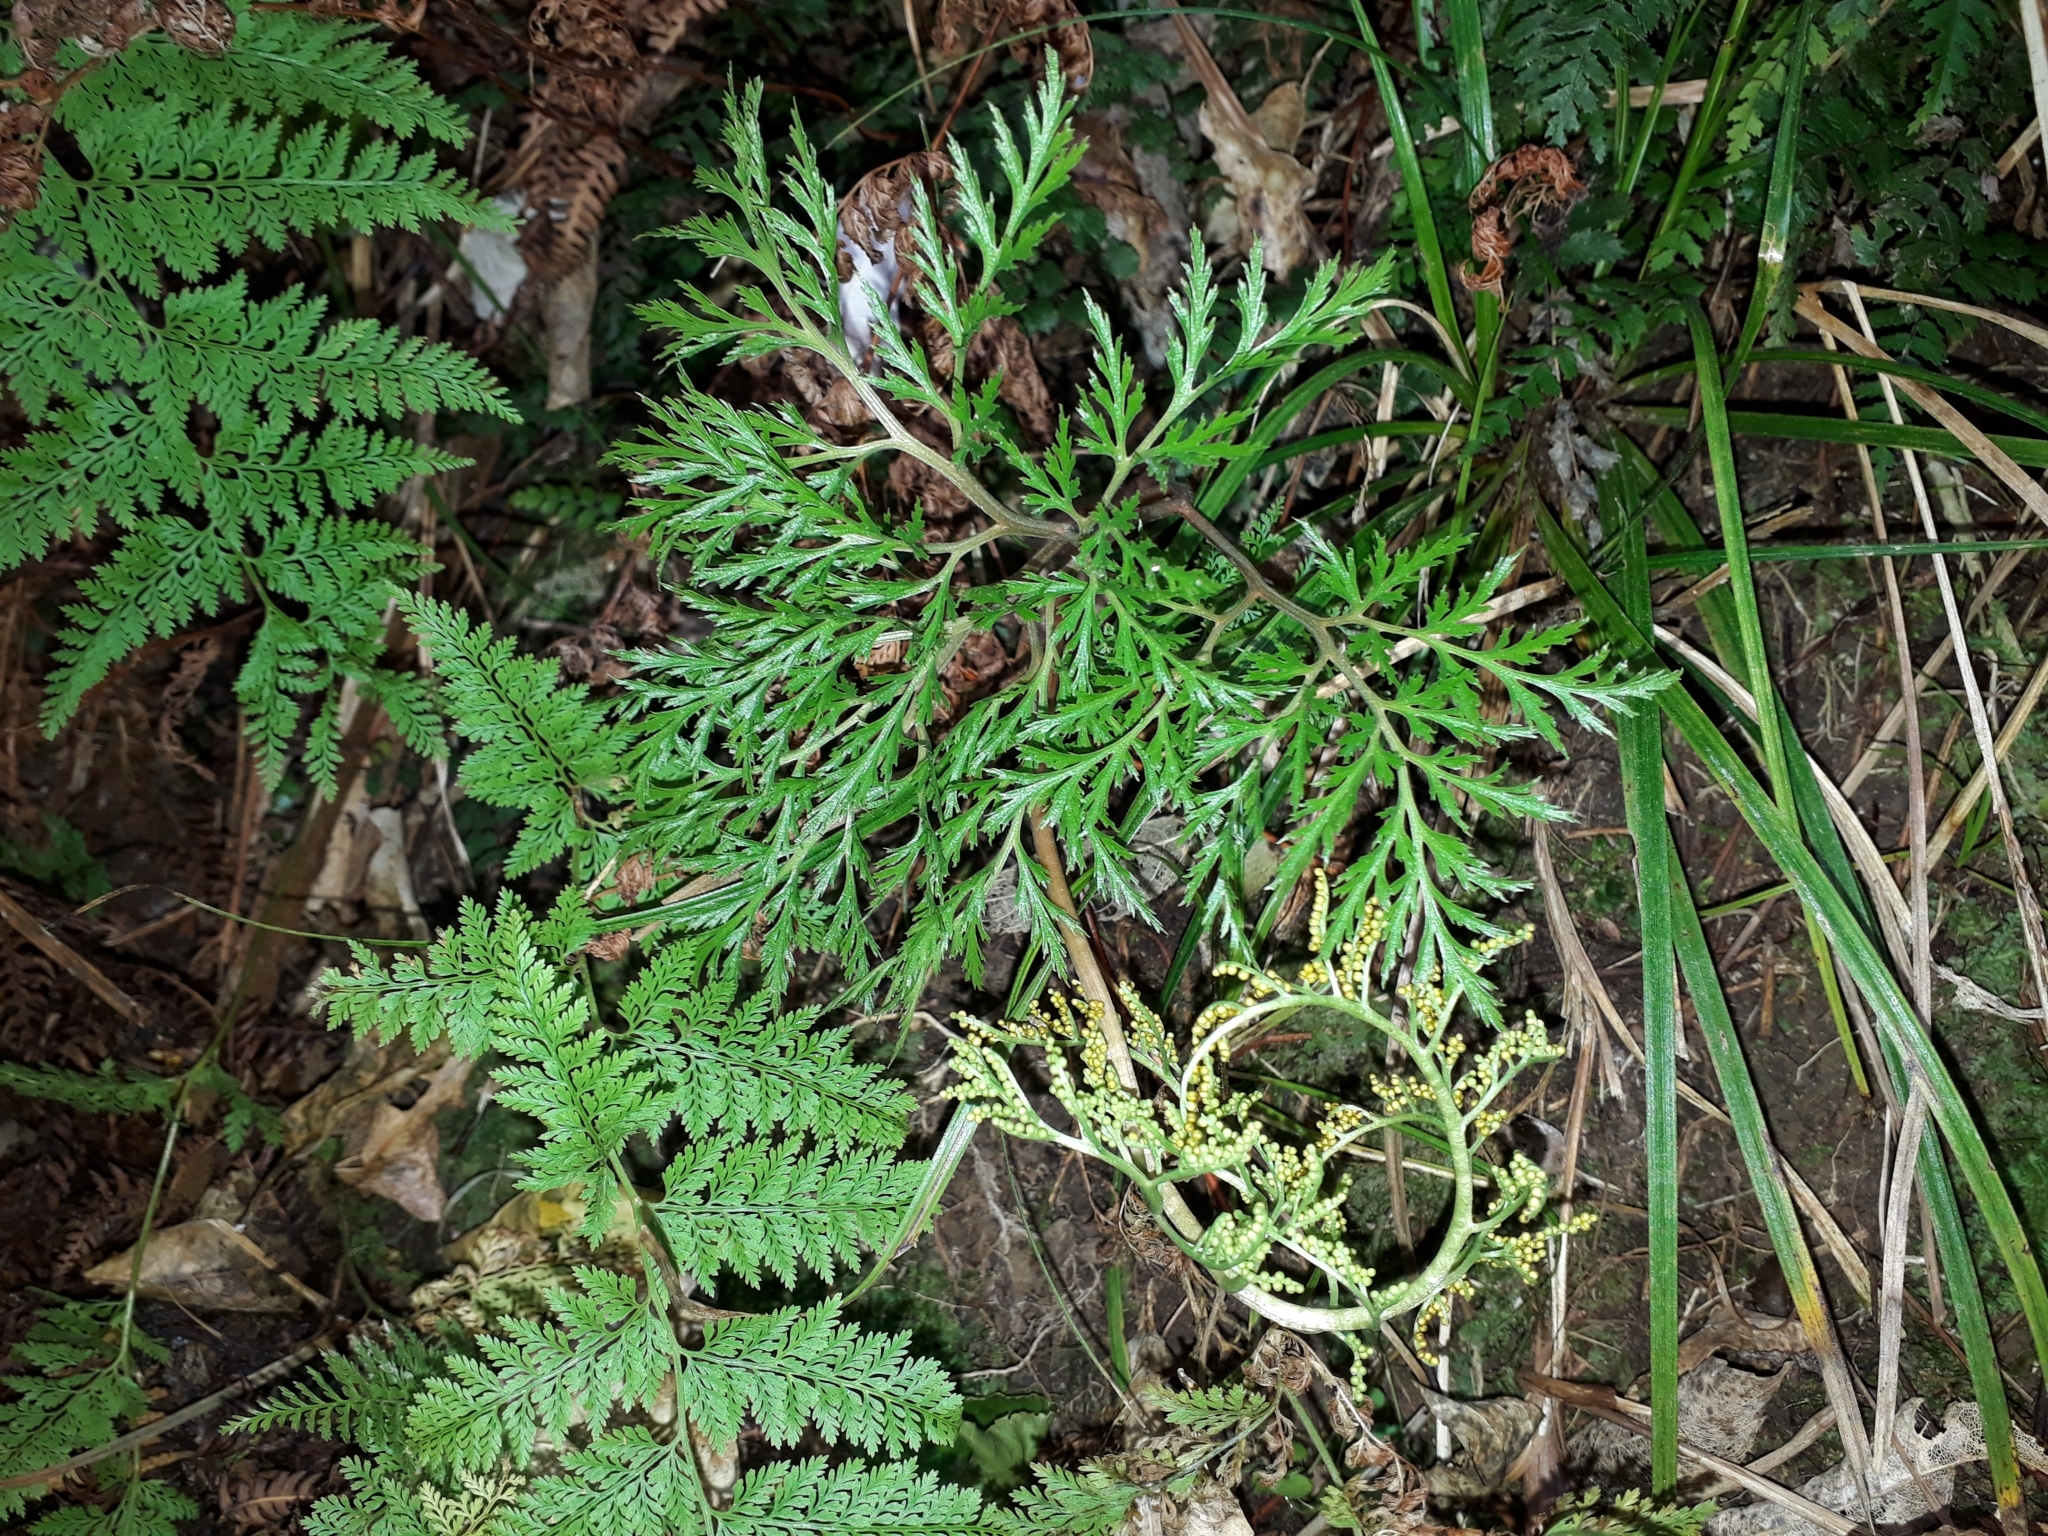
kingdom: Plantae
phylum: Tracheophyta
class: Polypodiopsida
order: Ophioglossales
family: Ophioglossaceae
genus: Sceptridium
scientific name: Sceptridium biforme
